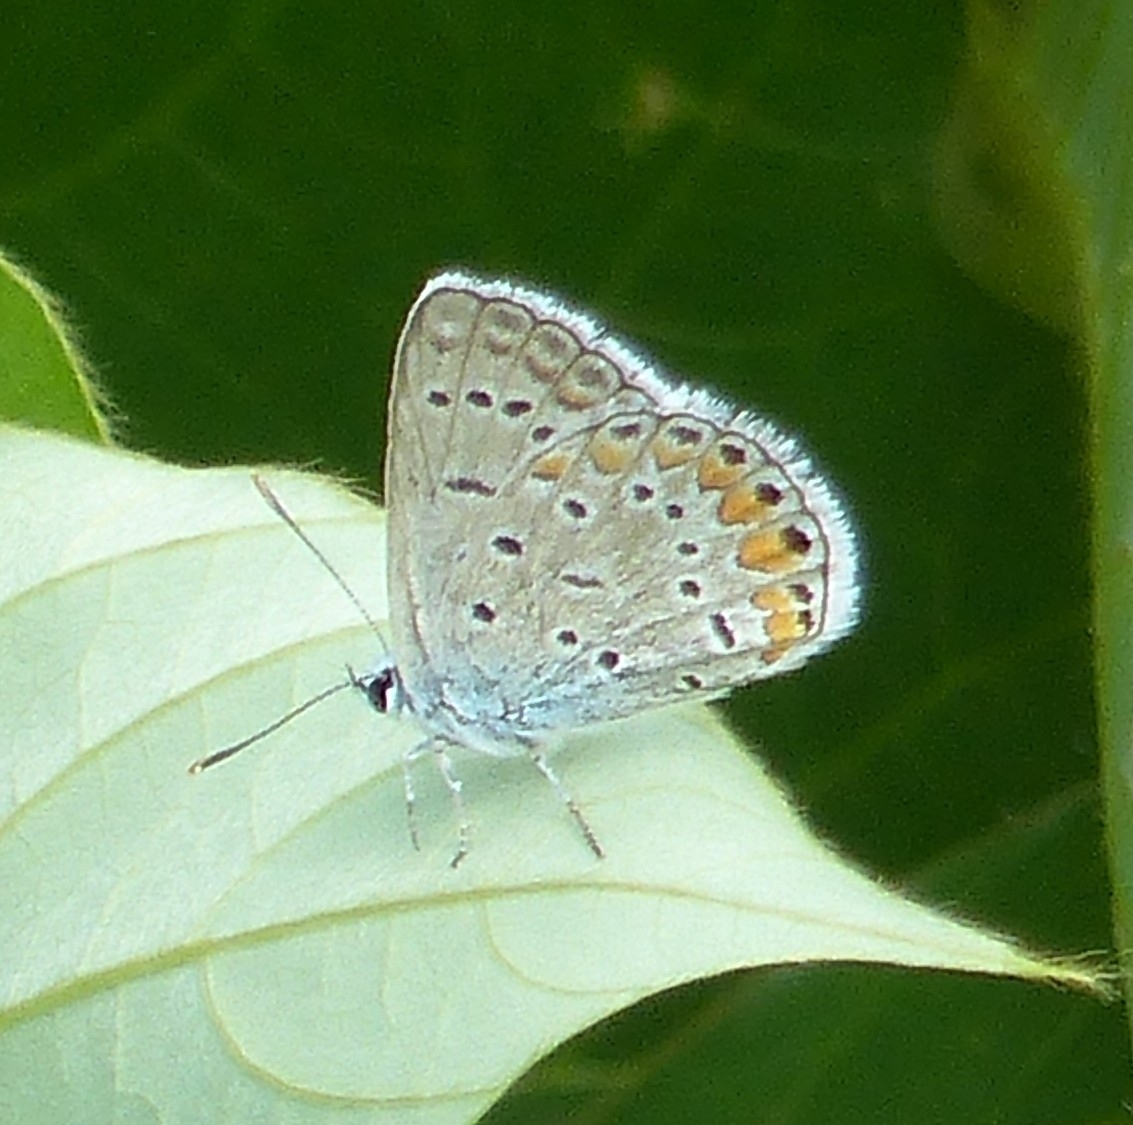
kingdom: Animalia
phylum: Arthropoda
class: Insecta
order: Lepidoptera
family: Lycaenidae
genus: Polyommatus
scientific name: Polyommatus icarus
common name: Common blue
